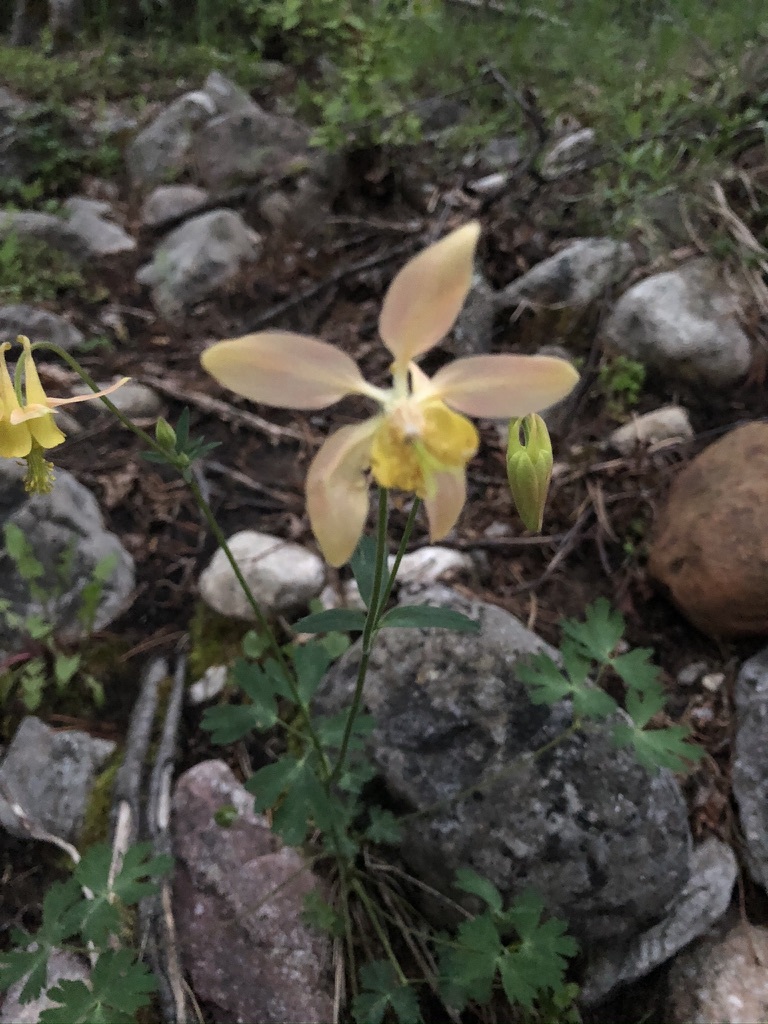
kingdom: Plantae
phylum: Tracheophyta
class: Magnoliopsida
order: Ranunculales
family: Ranunculaceae
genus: Aquilegia
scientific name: Aquilegia flavescens
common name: Yellow columbine
